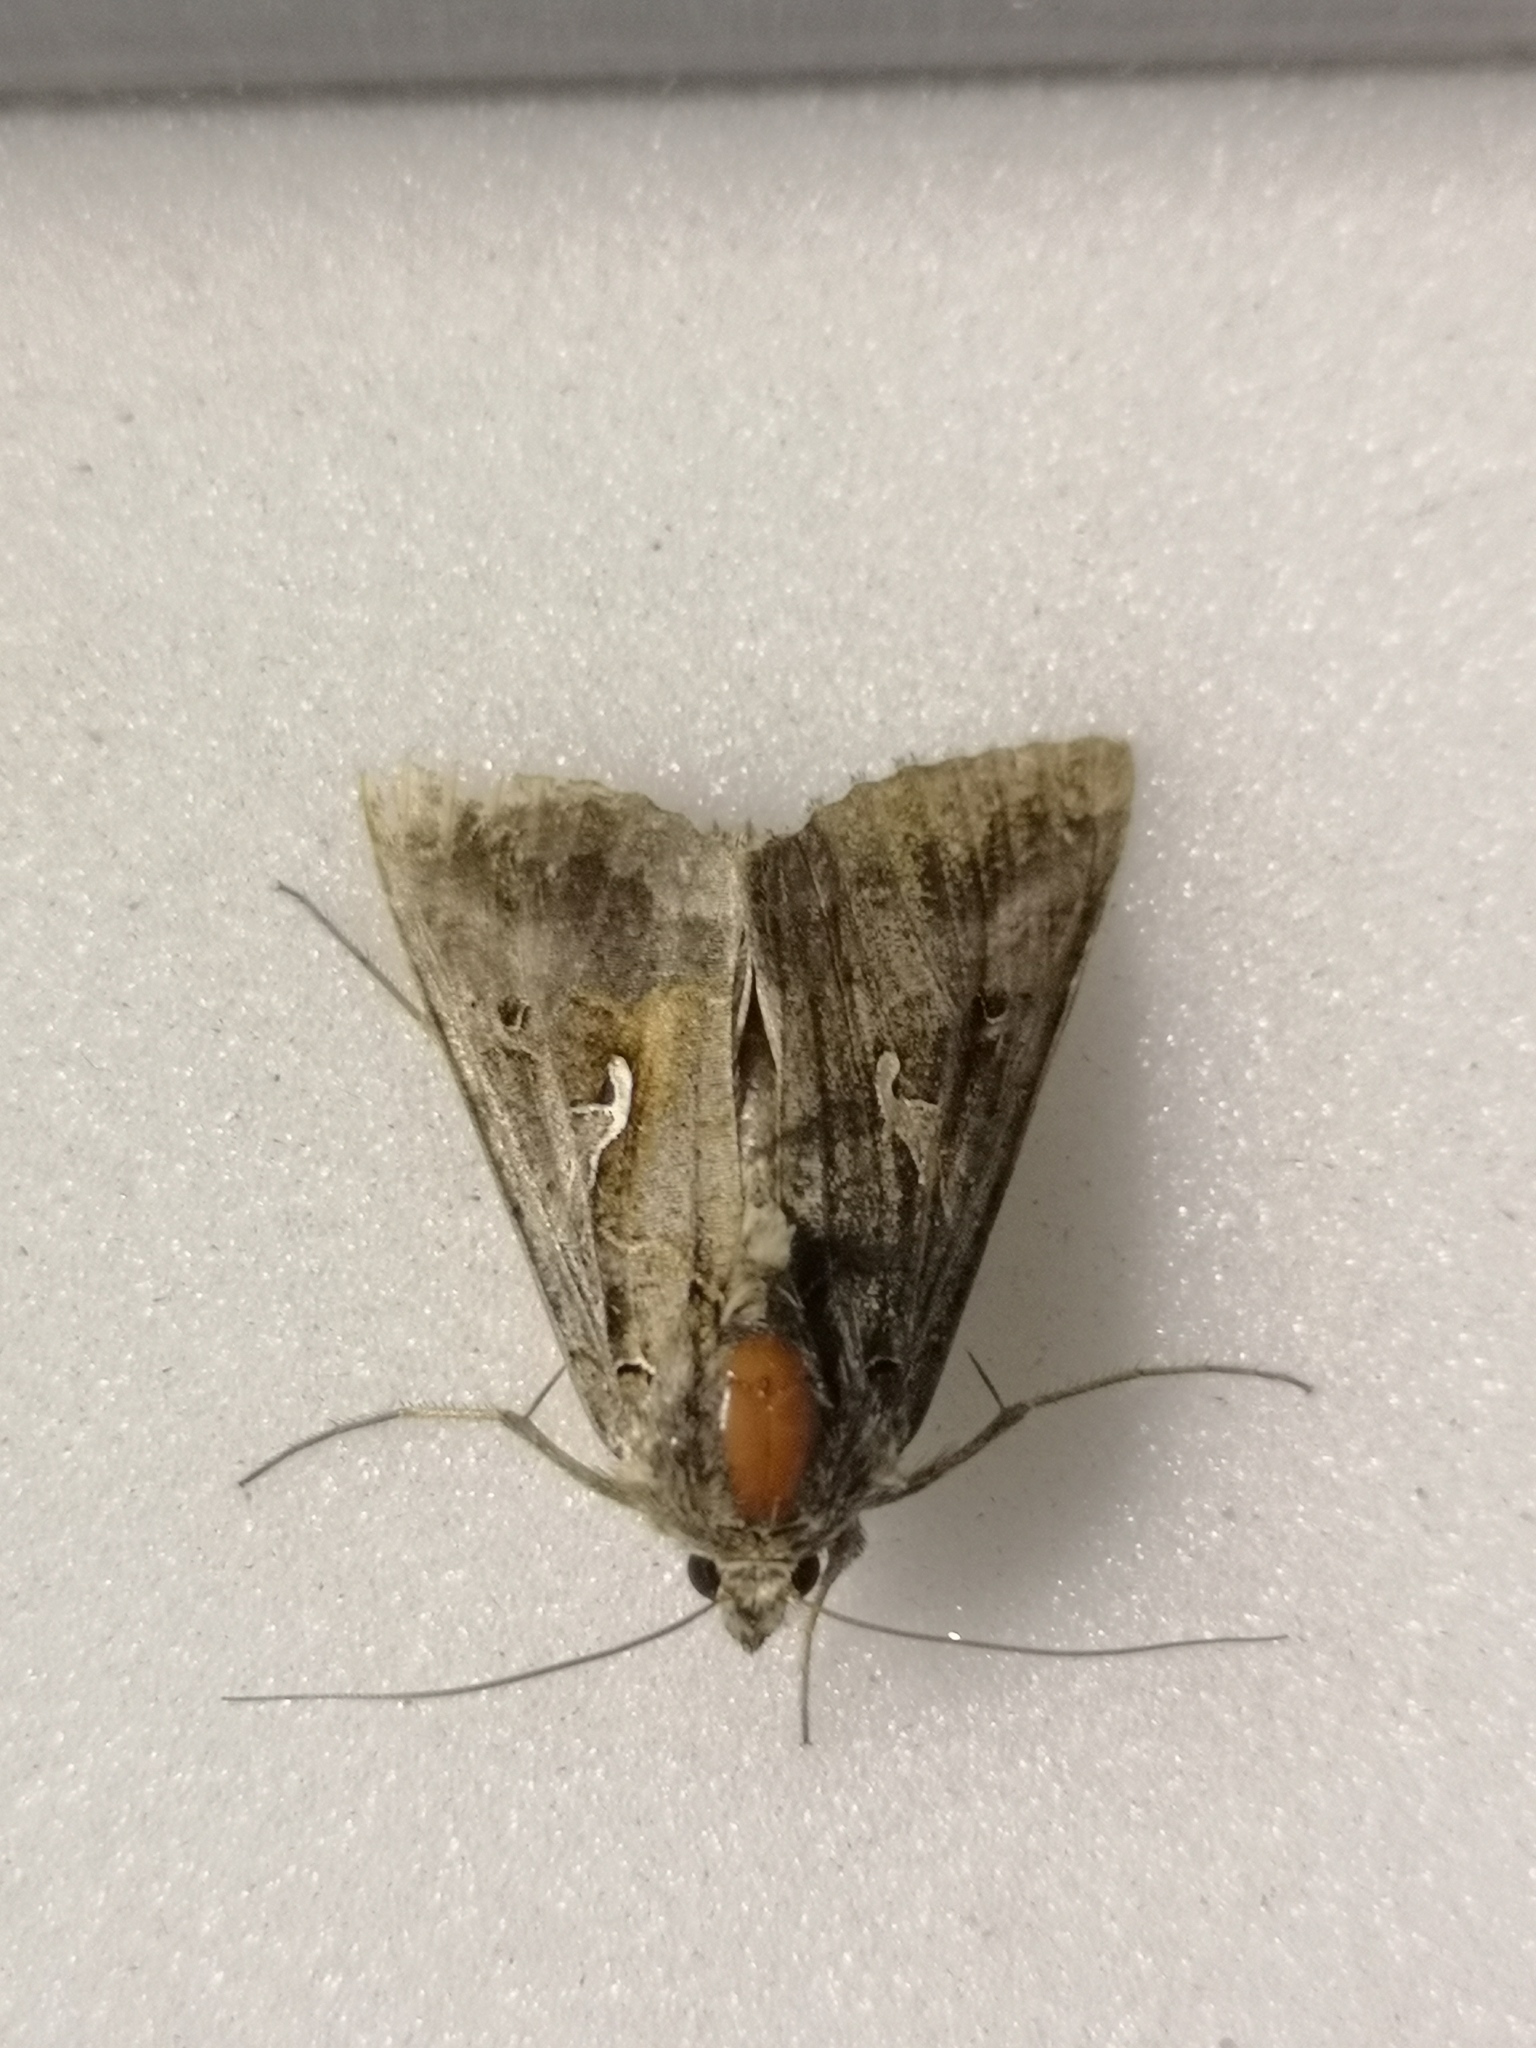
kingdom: Animalia
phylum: Arthropoda
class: Insecta
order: Lepidoptera
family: Noctuidae
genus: Autographa
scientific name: Autographa gamma
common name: Silver y
